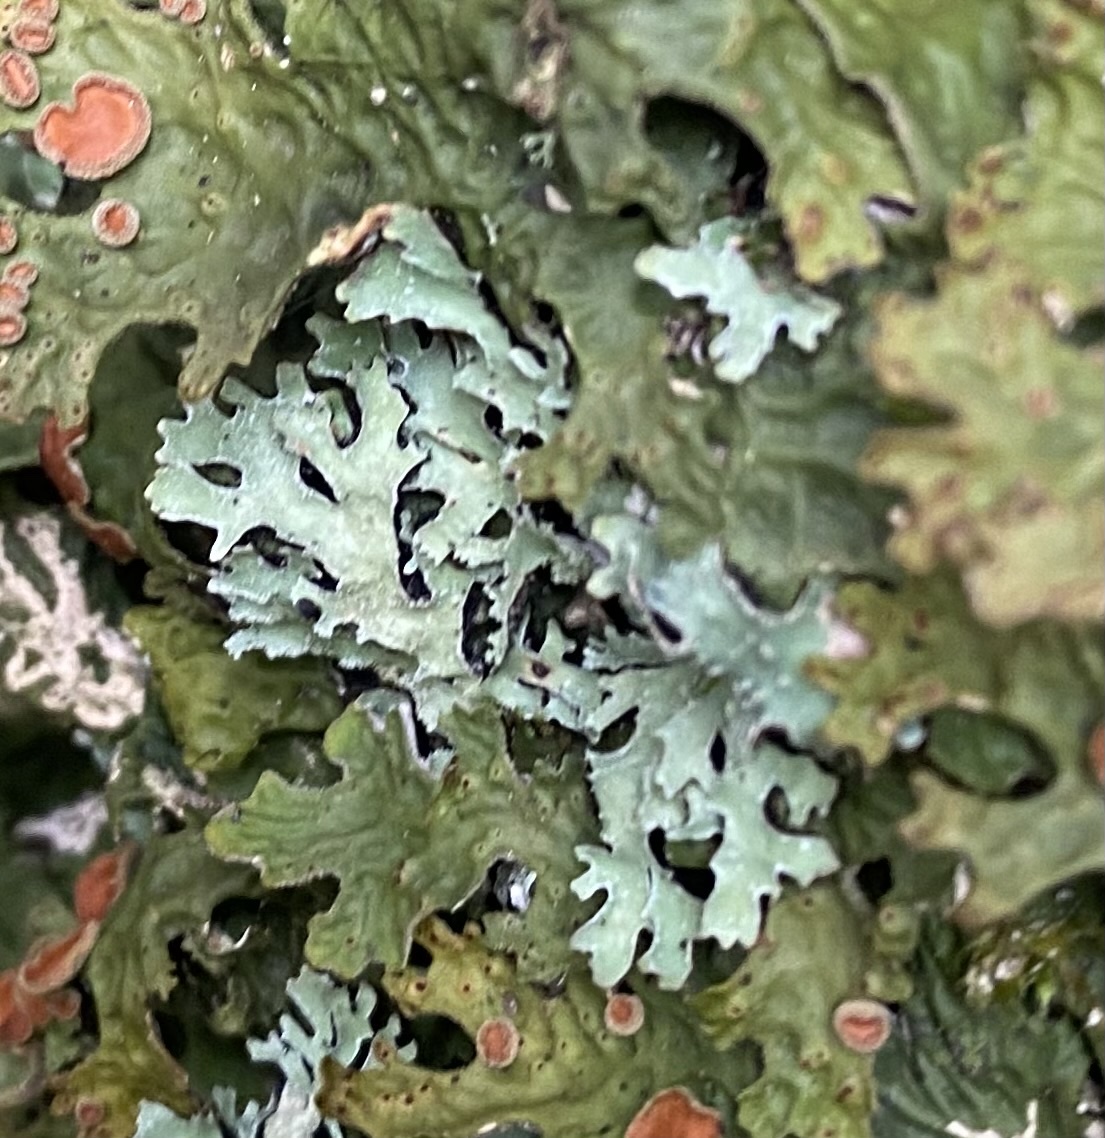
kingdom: Fungi
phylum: Ascomycota
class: Lecanoromycetes
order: Lecanorales
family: Parmeliaceae
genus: Parmelia
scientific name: Parmelia
